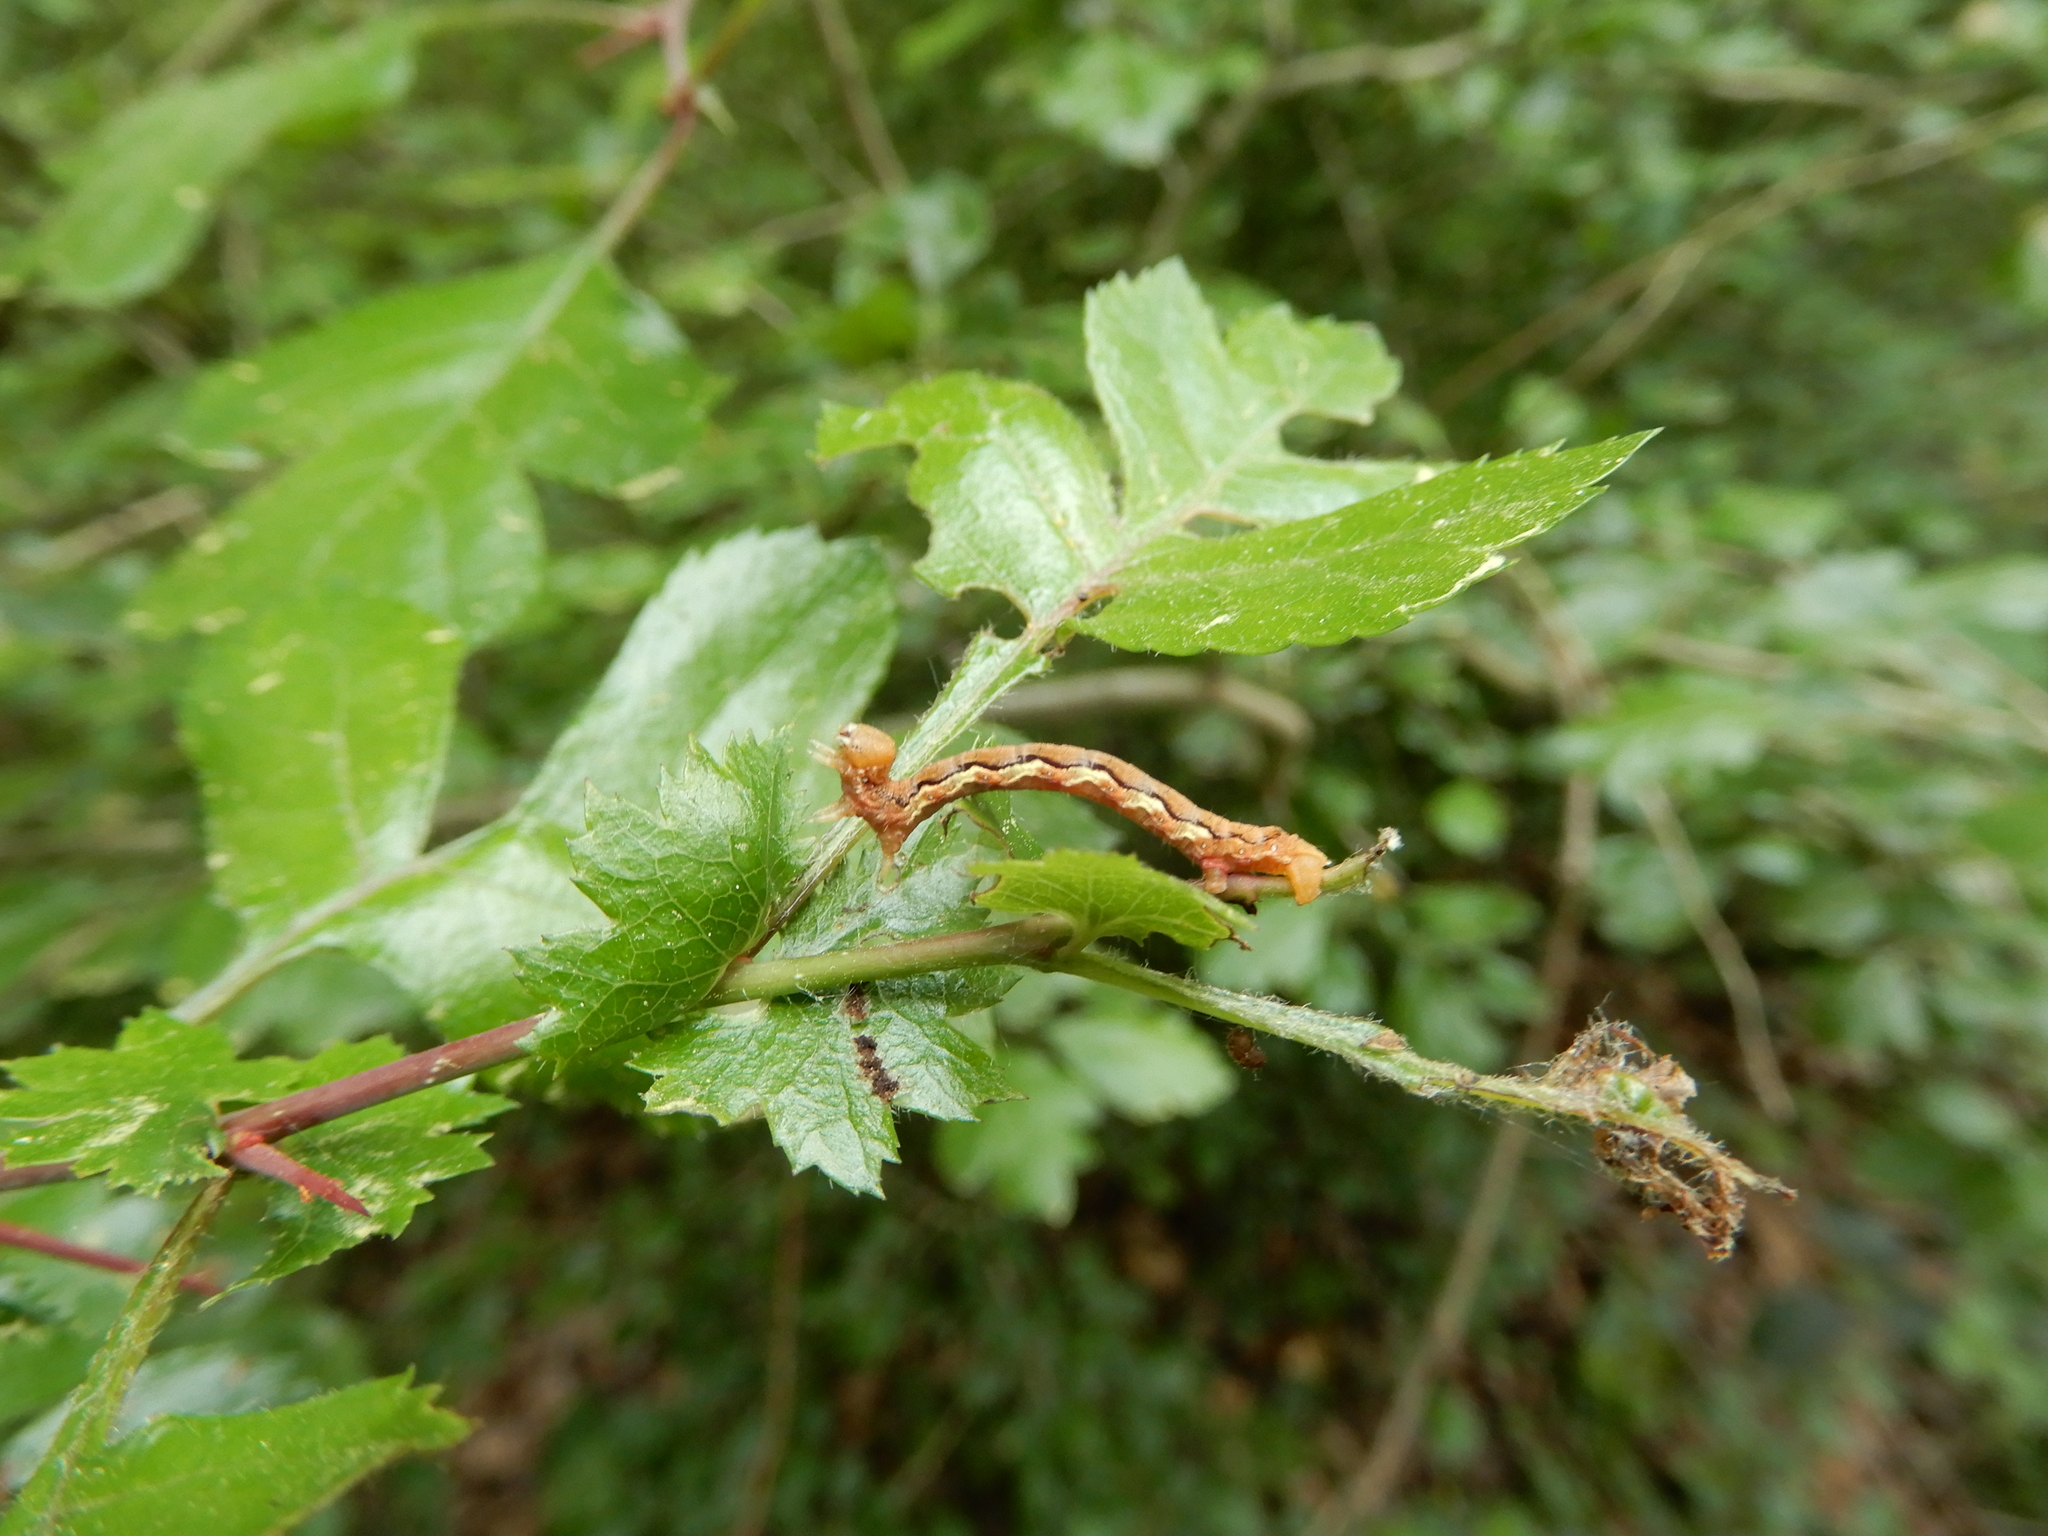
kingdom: Animalia
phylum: Arthropoda
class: Insecta
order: Lepidoptera
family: Geometridae
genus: Erannis
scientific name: Erannis defoliaria
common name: Mottled umber
